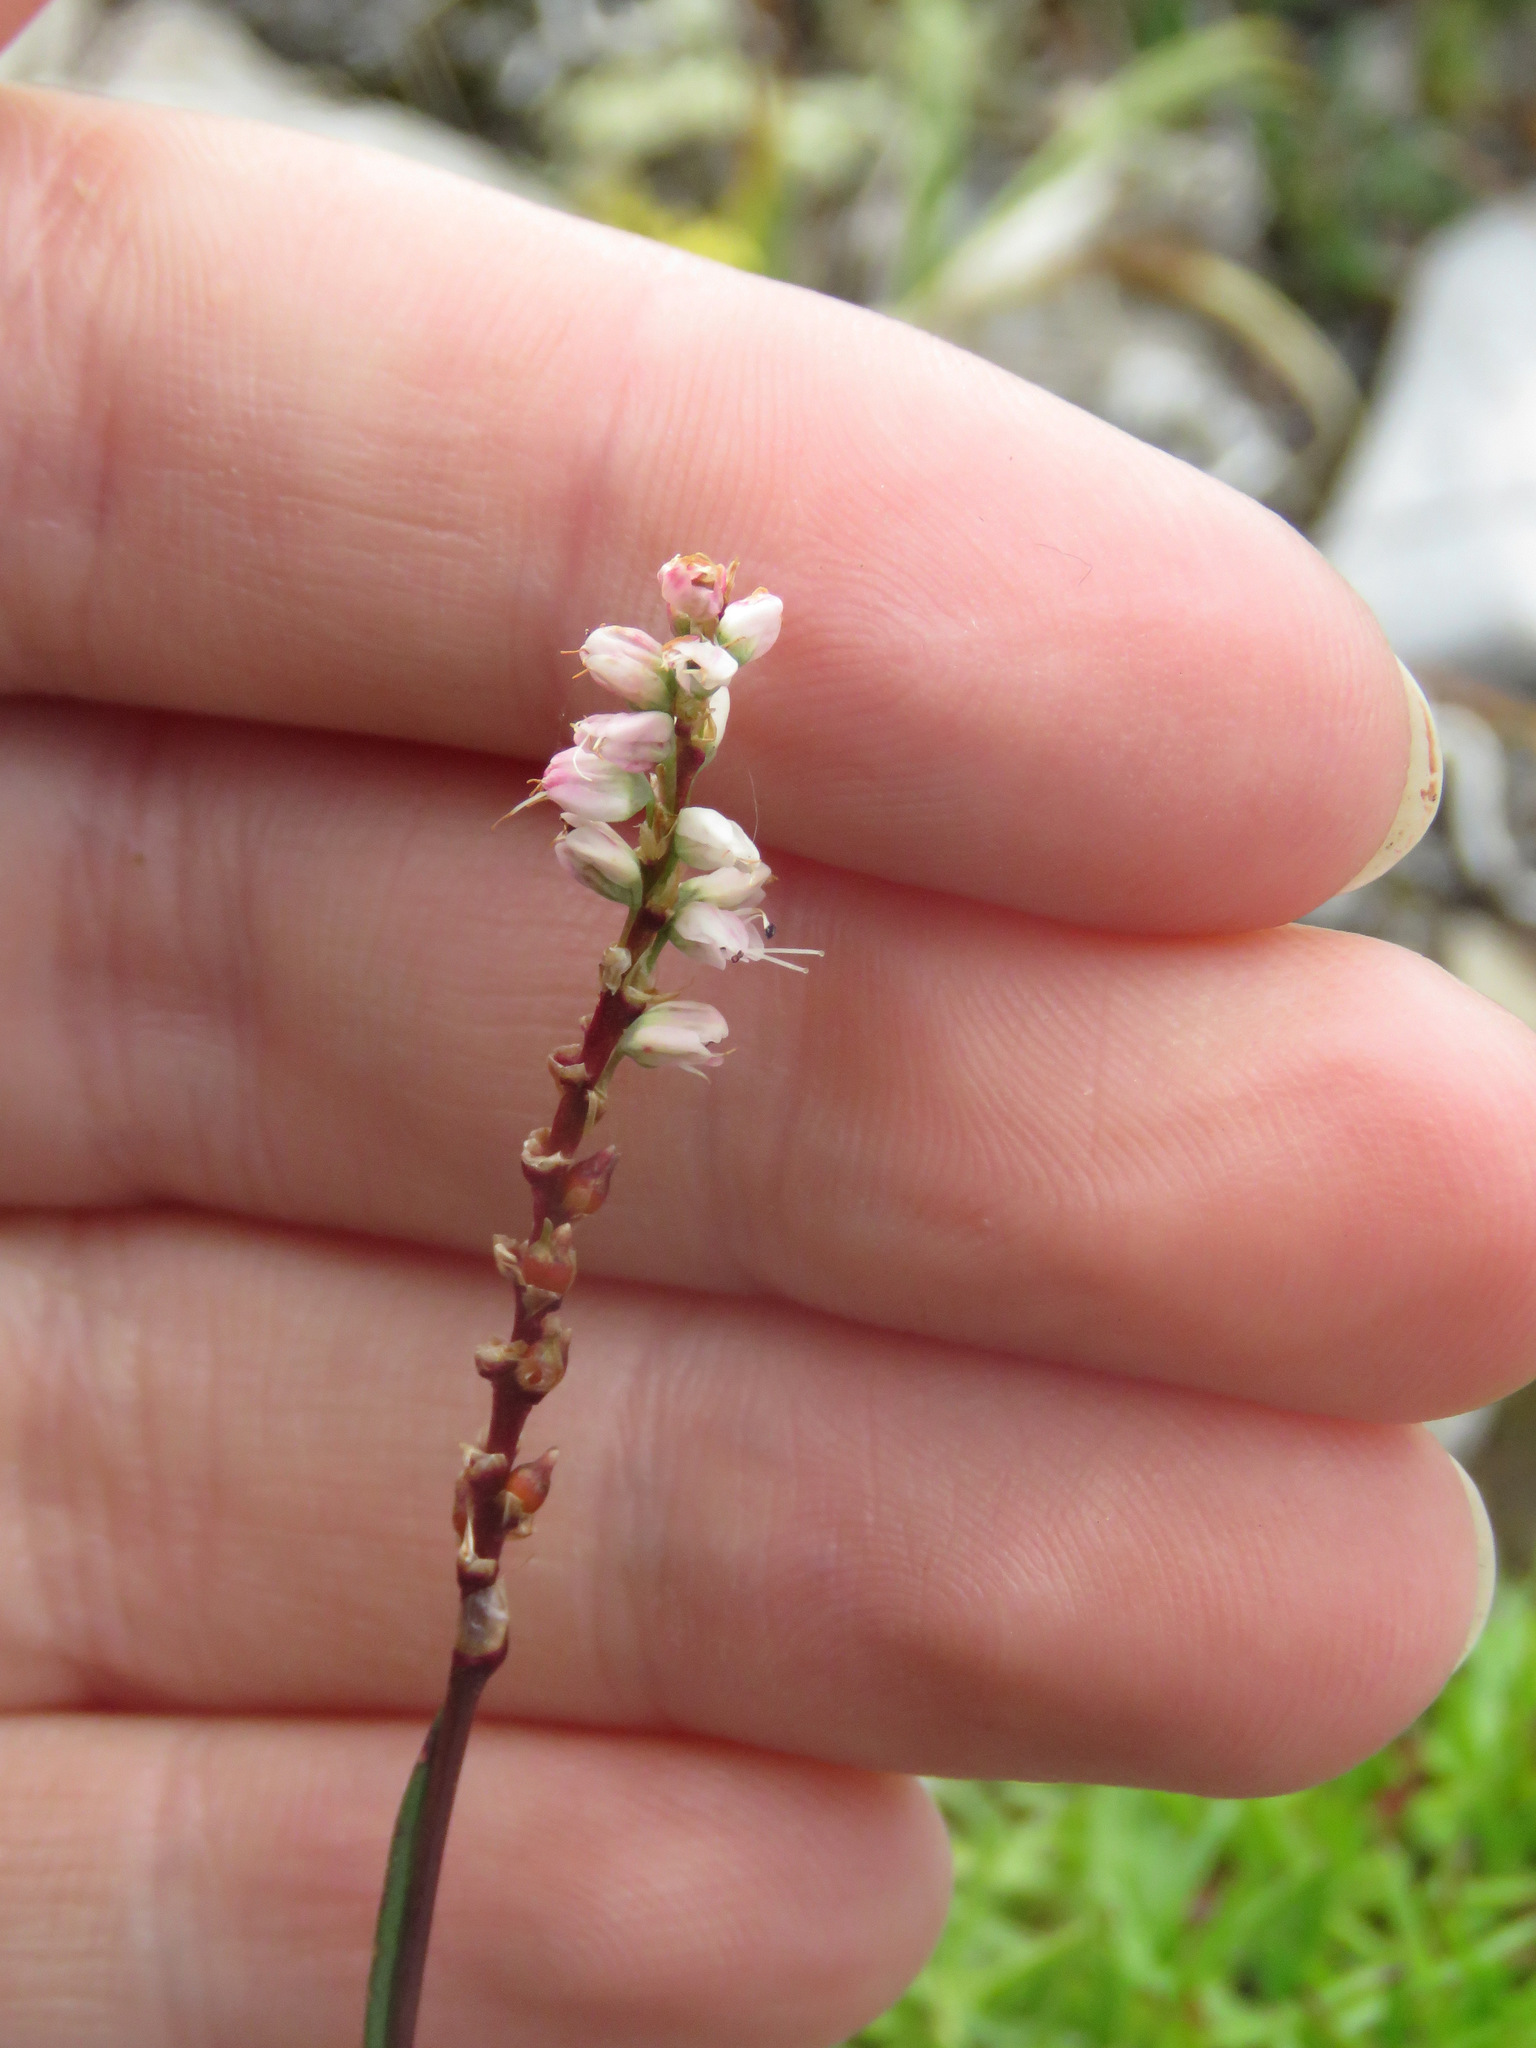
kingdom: Plantae
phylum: Tracheophyta
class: Magnoliopsida
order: Caryophyllales
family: Polygonaceae
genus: Bistorta
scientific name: Bistorta vivipara
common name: Alpine bistort
